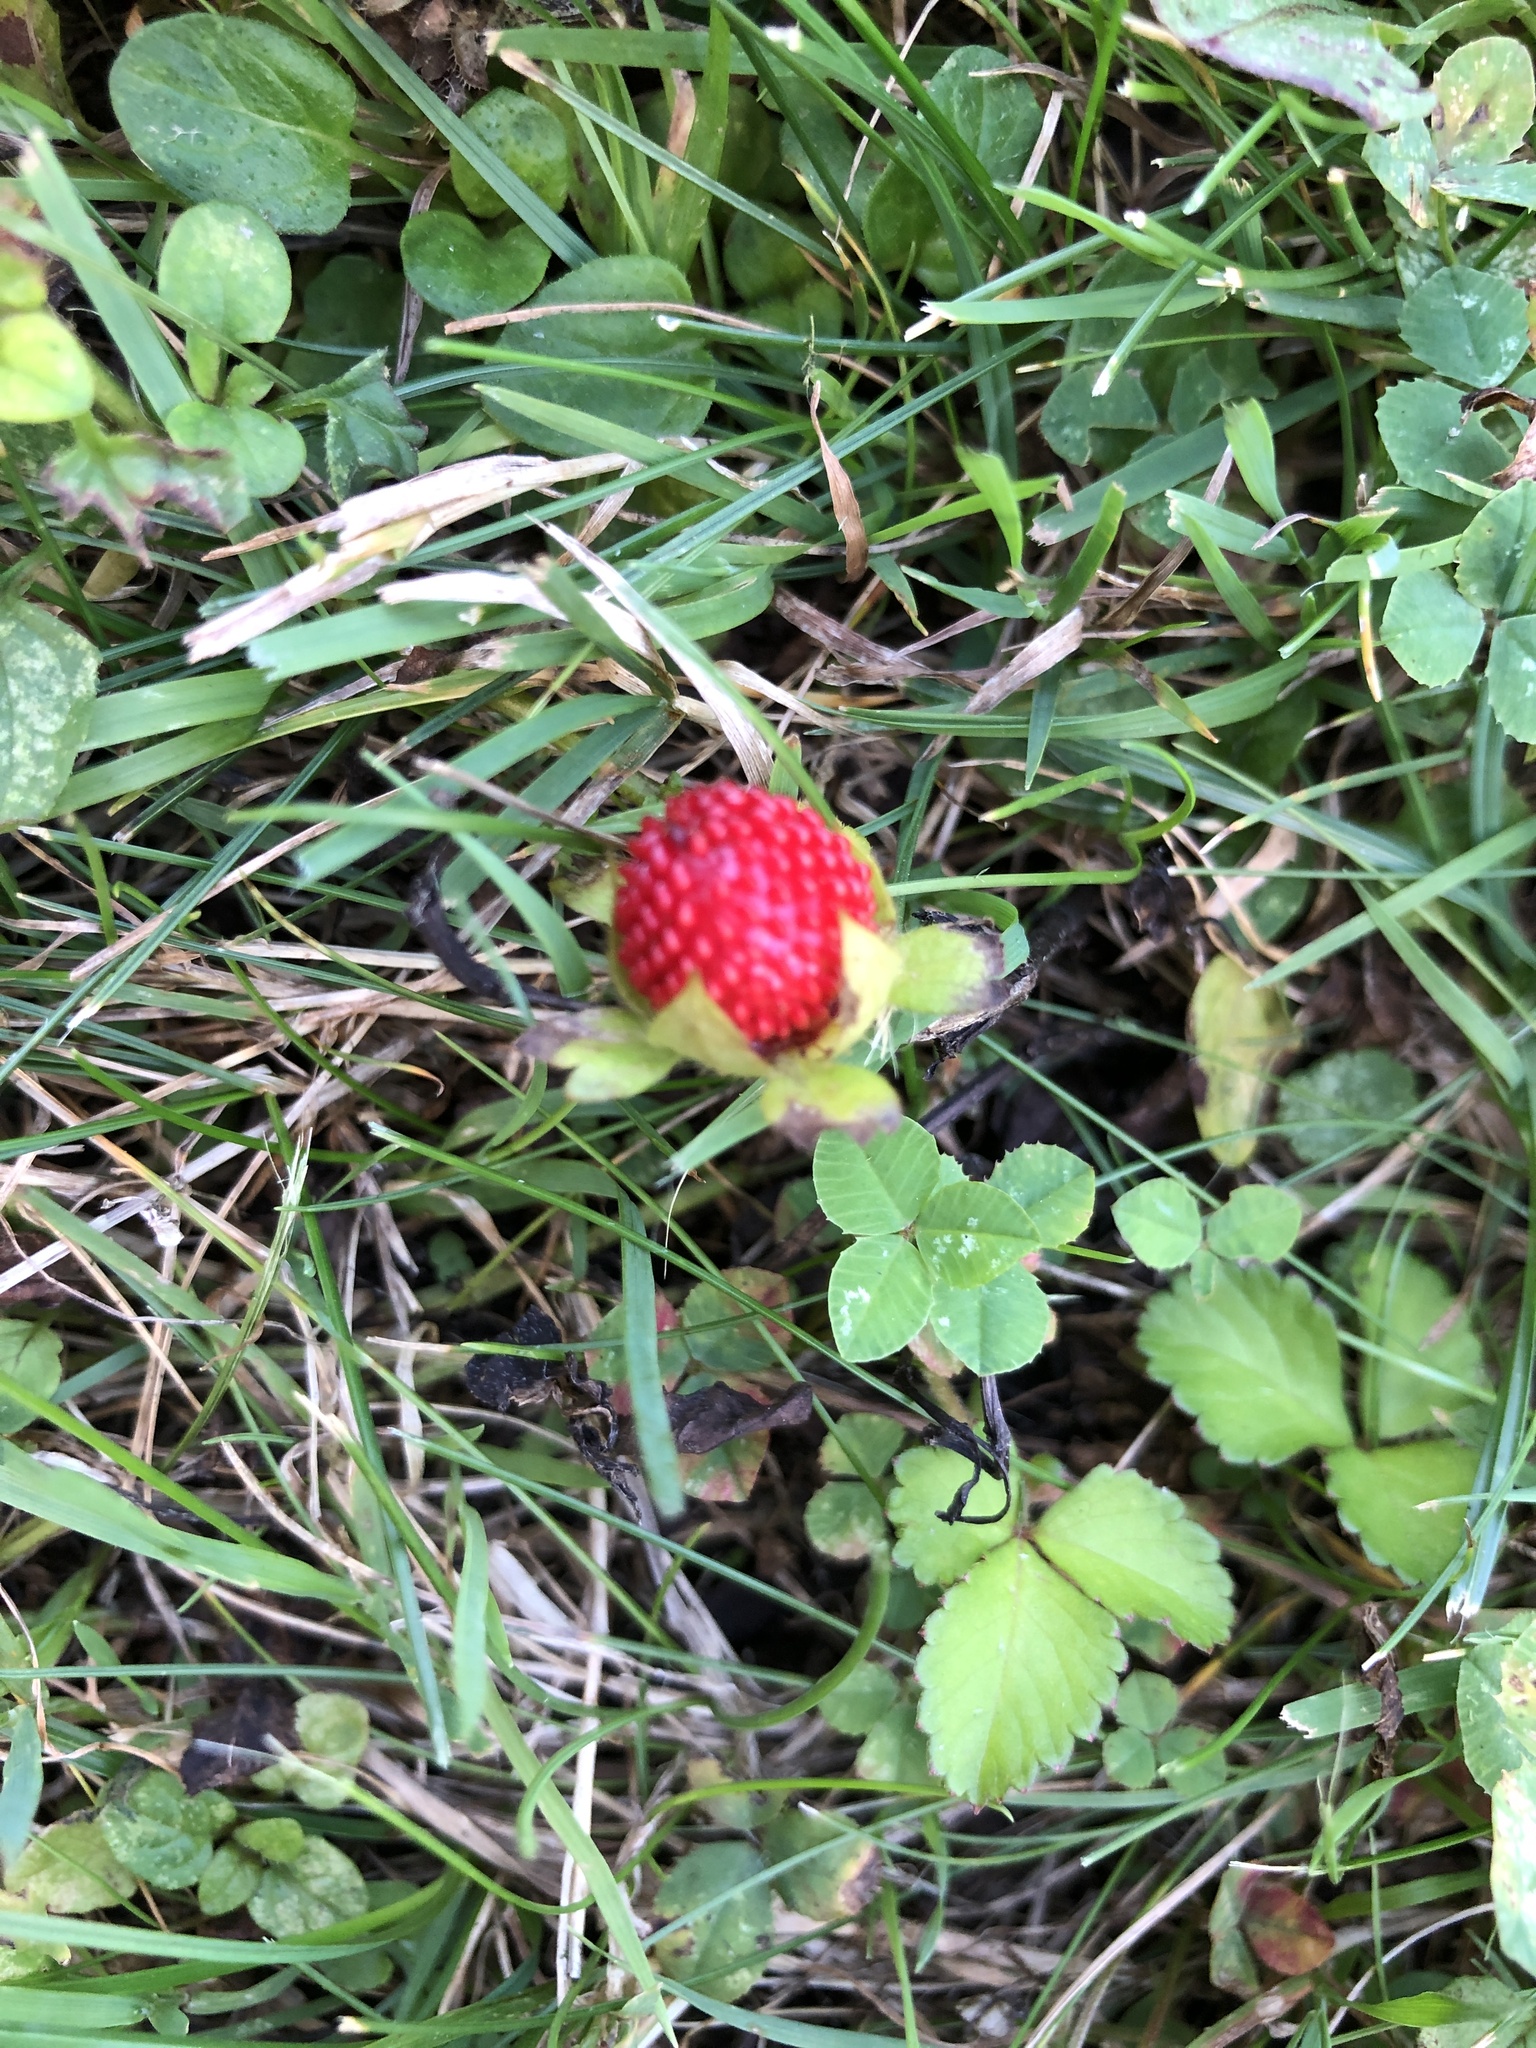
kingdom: Plantae
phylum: Tracheophyta
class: Magnoliopsida
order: Rosales
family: Rosaceae
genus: Potentilla
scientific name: Potentilla indica
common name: Yellow-flowered strawberry
